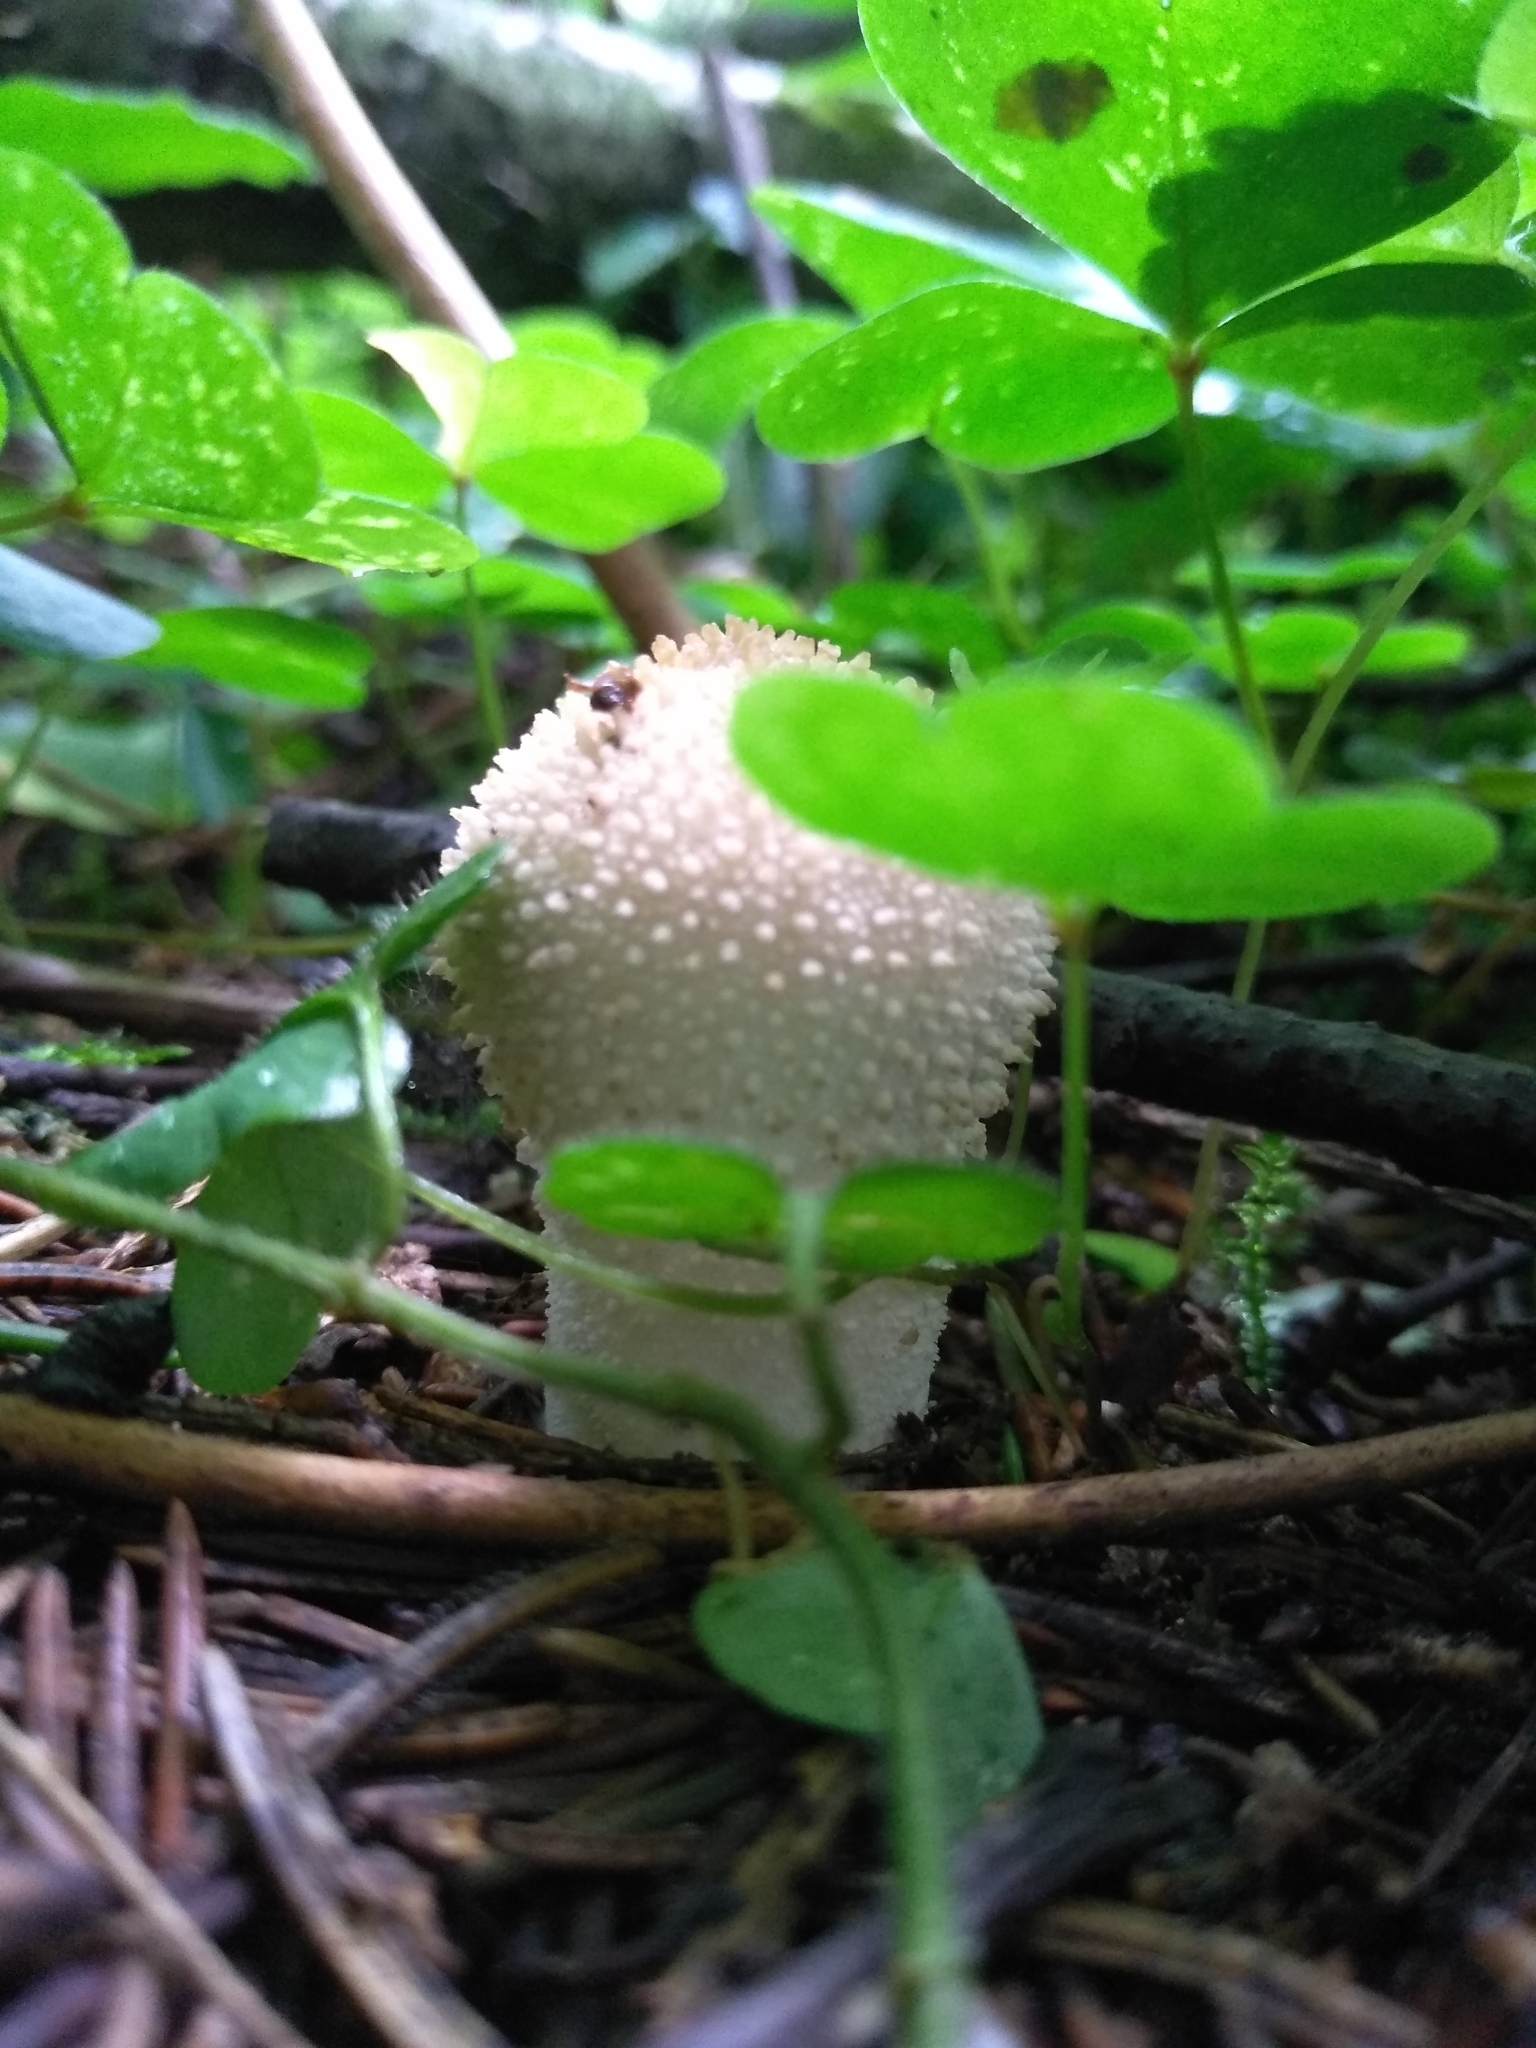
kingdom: Fungi
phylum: Basidiomycota
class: Agaricomycetes
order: Agaricales
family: Lycoperdaceae
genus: Lycoperdon
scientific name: Lycoperdon perlatum
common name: Common puffball
